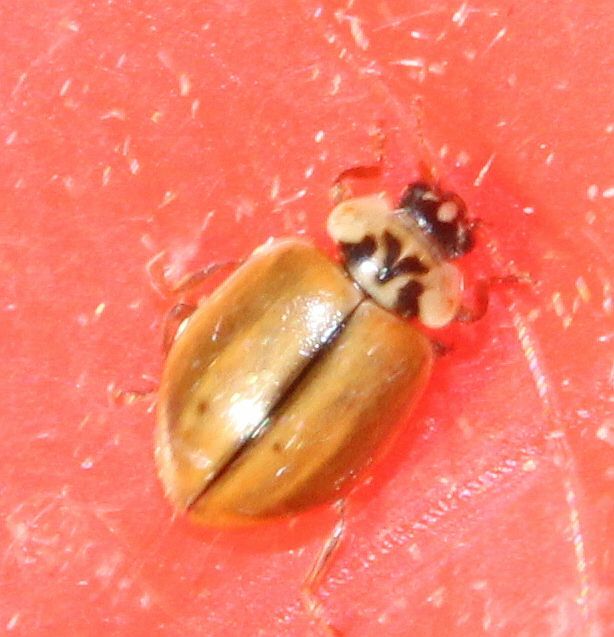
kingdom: Animalia
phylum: Arthropoda
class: Insecta
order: Coleoptera
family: Coccinellidae
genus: Aphidecta
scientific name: Aphidecta obliterata
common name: Larch ladybird
